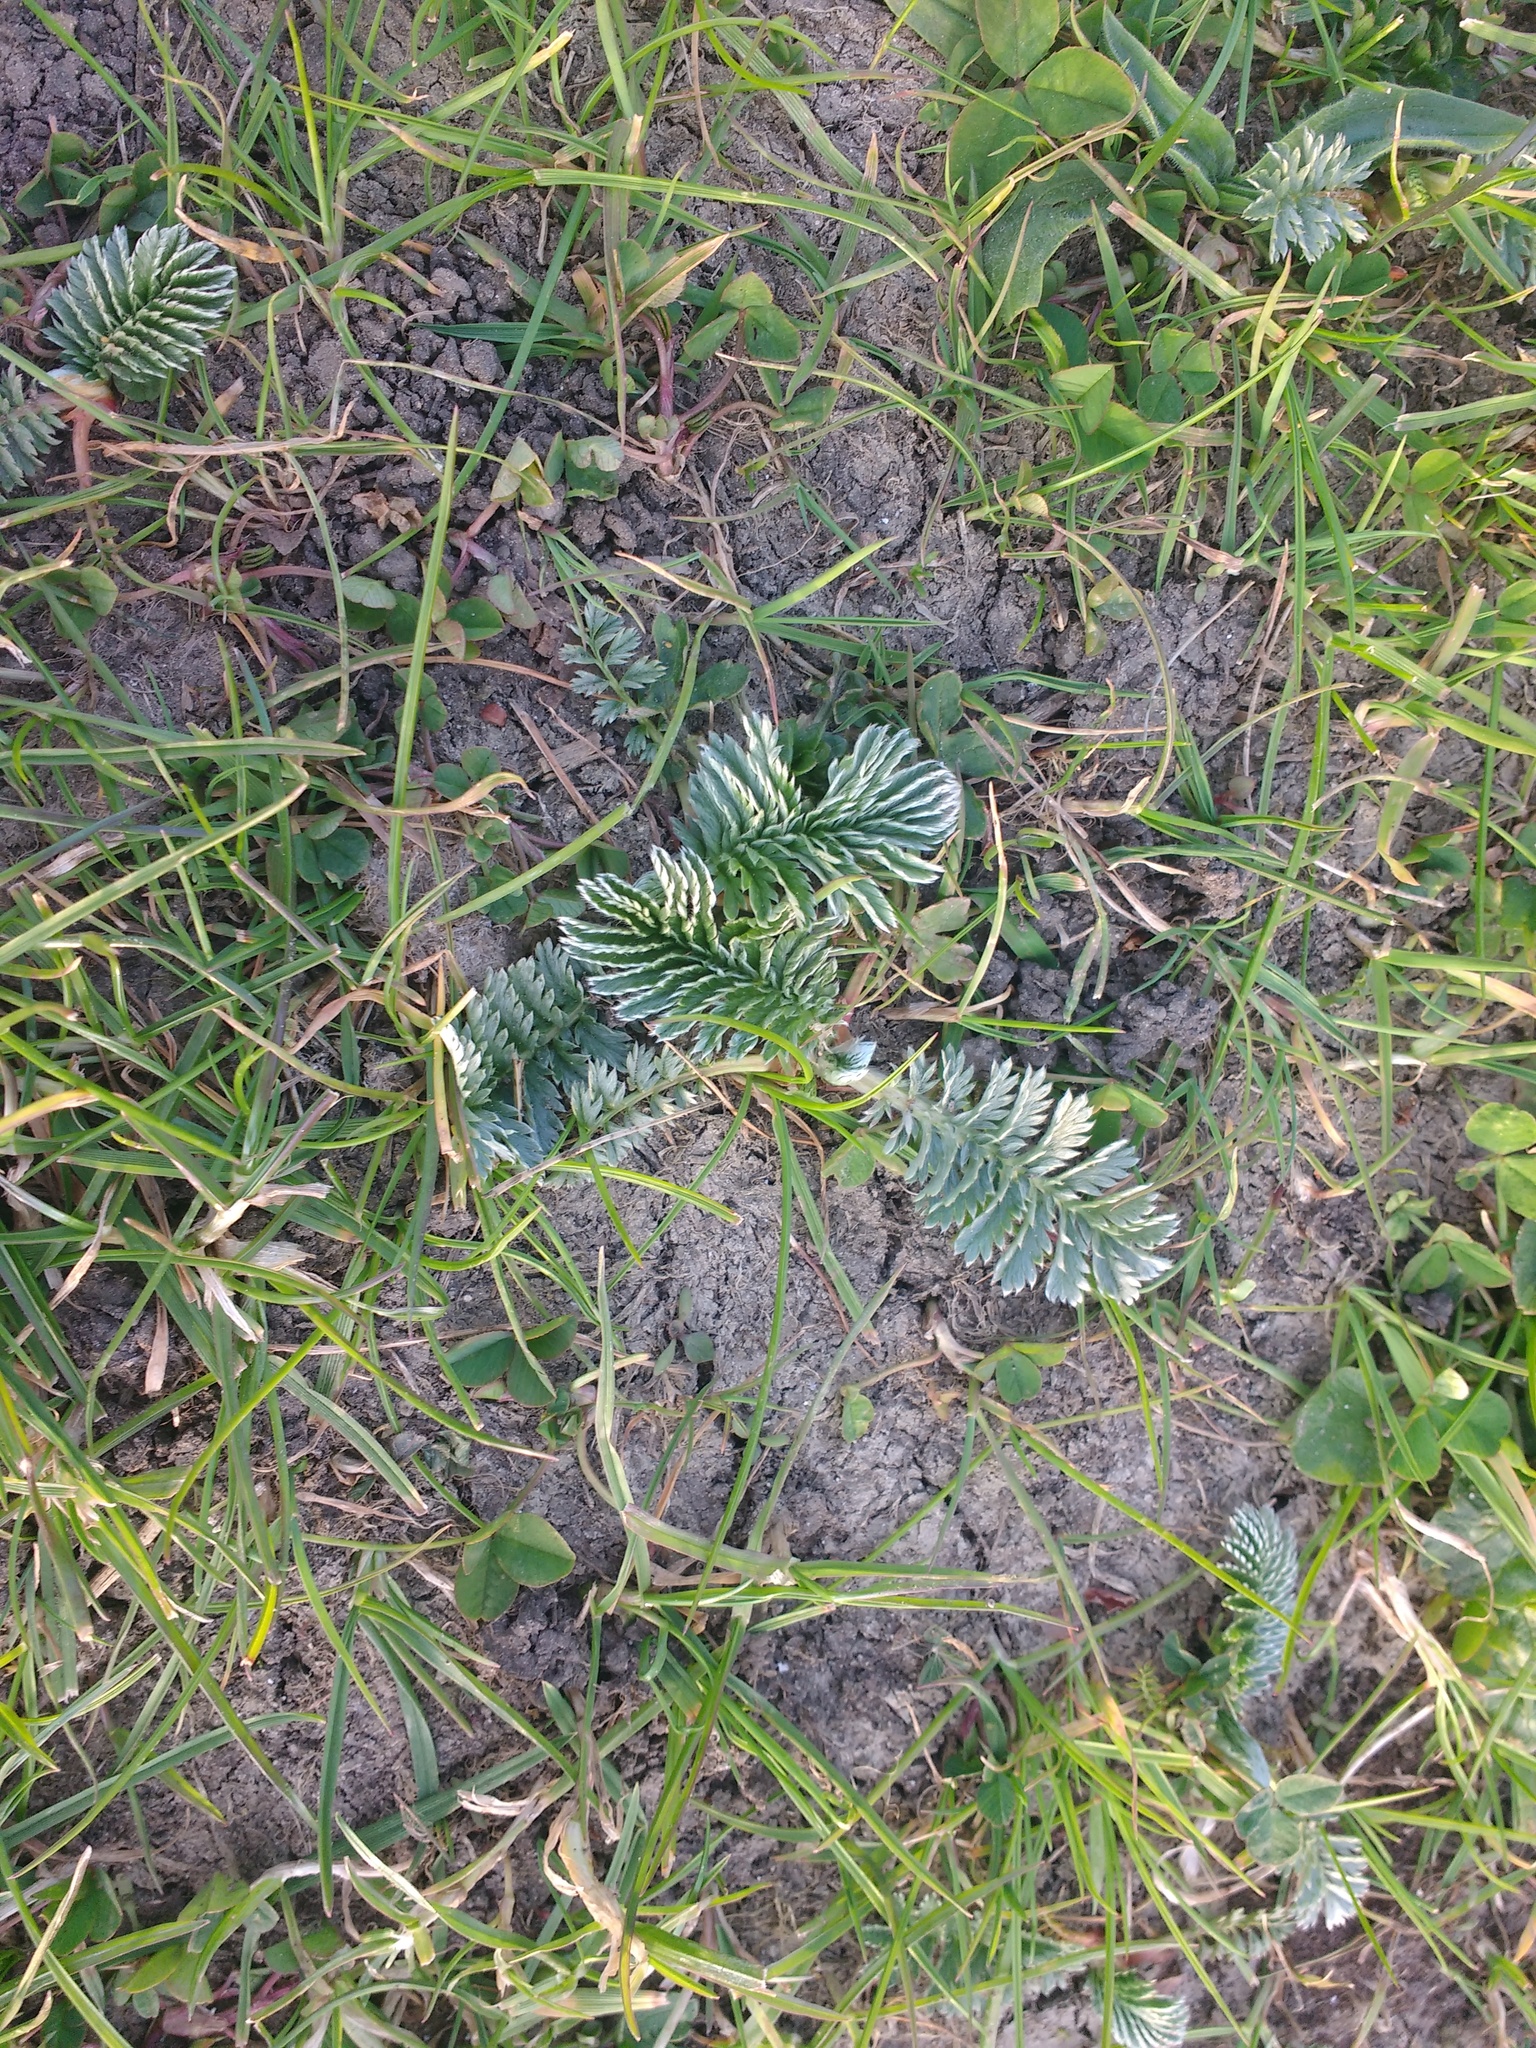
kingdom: Plantae
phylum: Tracheophyta
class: Magnoliopsida
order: Rosales
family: Rosaceae
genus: Argentina
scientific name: Argentina anserina
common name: Common silverweed
